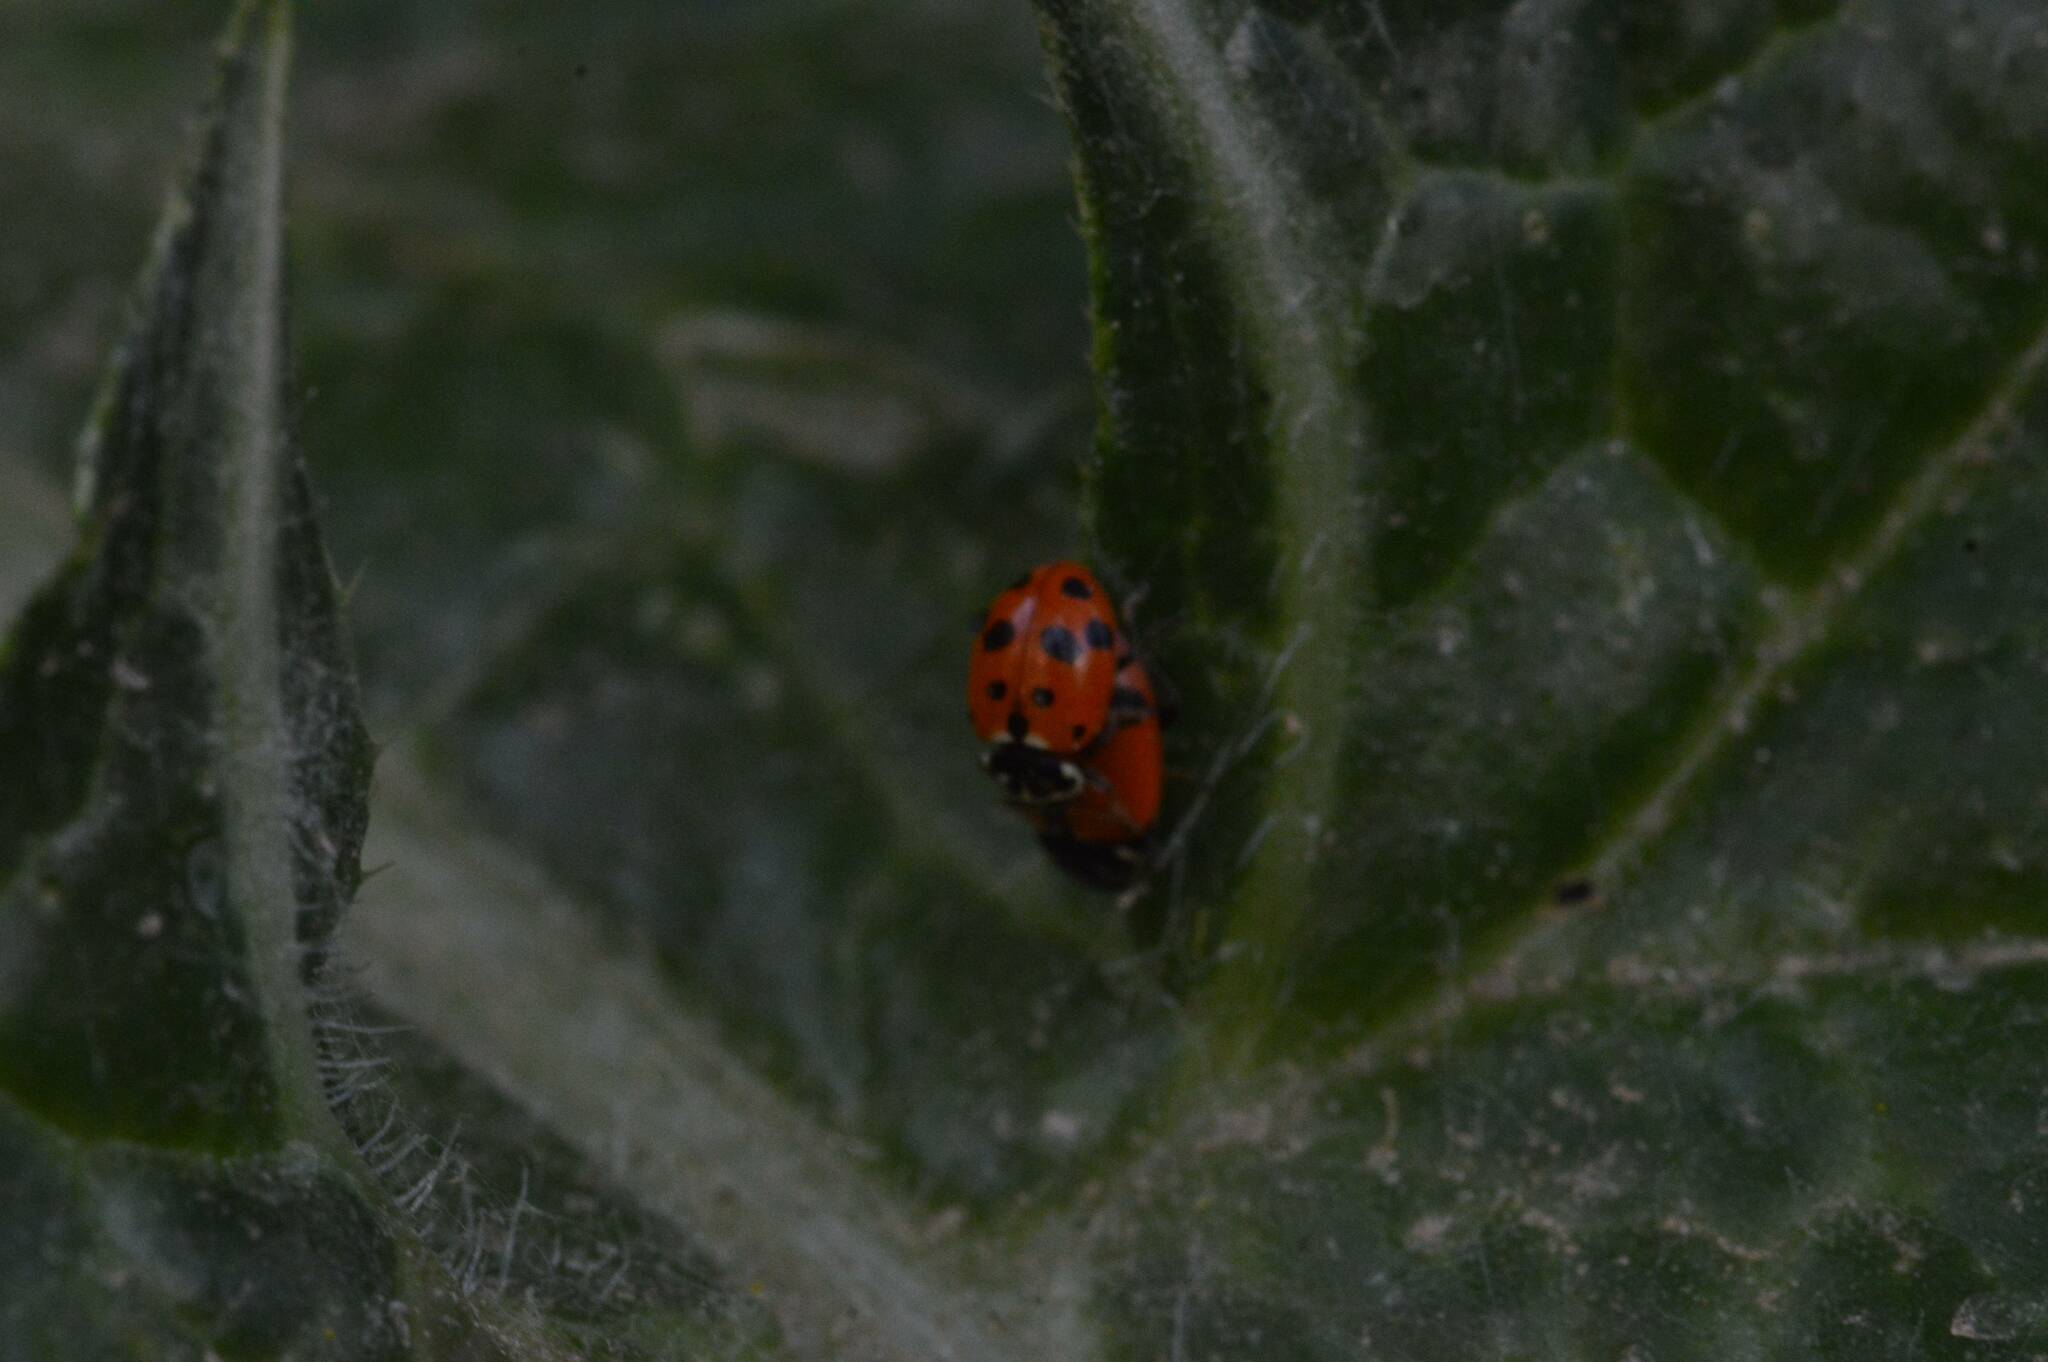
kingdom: Animalia
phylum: Arthropoda
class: Insecta
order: Coleoptera
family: Coccinellidae
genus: Hippodamia
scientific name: Hippodamia variegata
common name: Ladybird beetle
